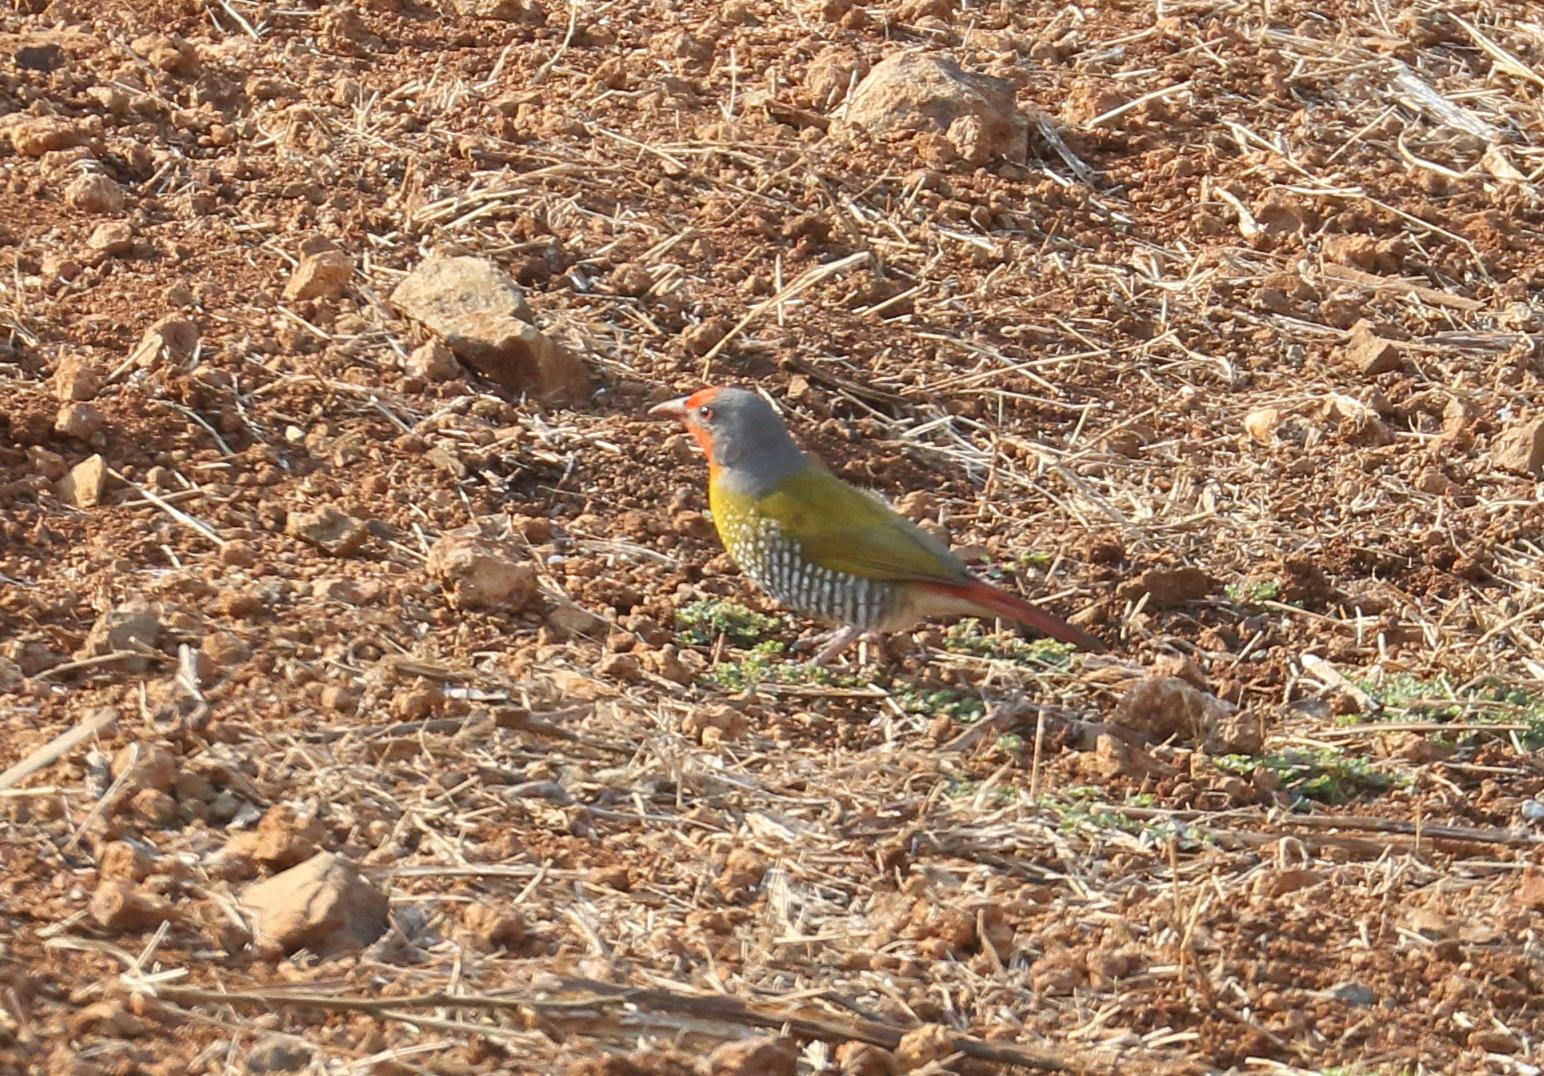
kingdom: Animalia
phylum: Chordata
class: Aves
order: Passeriformes
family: Estrildidae
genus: Pytilia
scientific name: Pytilia melba
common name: Green-winged pytilia
